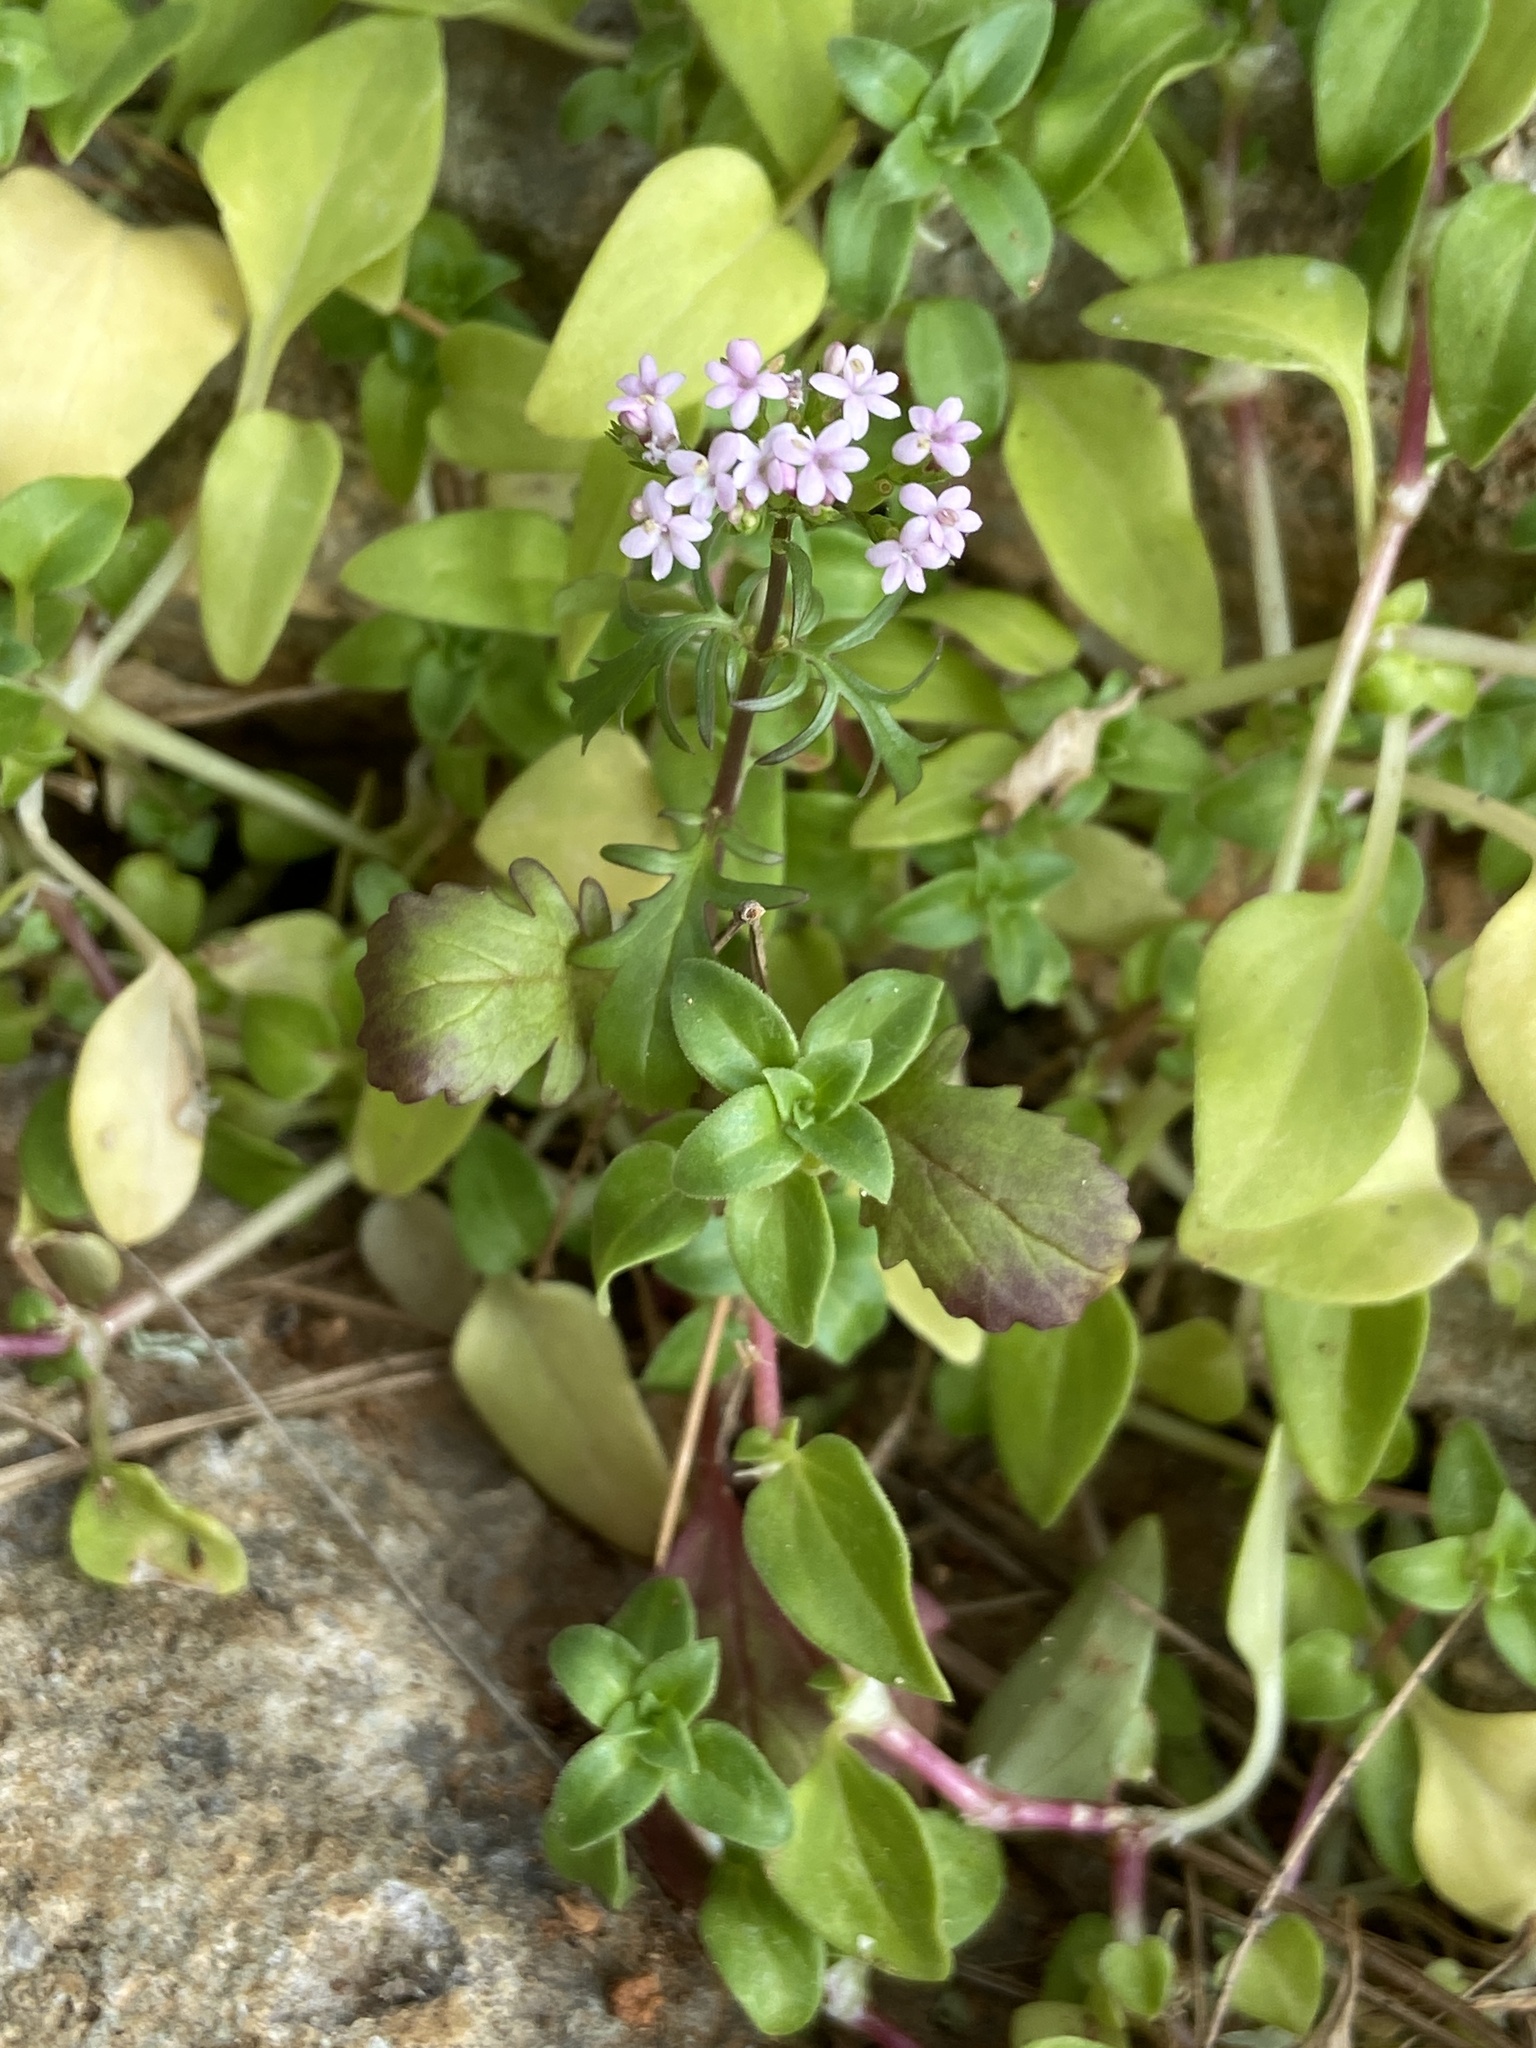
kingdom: Plantae
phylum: Tracheophyta
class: Magnoliopsida
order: Dipsacales
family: Caprifoliaceae
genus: Centranthus
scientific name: Centranthus calcitrapae
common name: Annual valerian
